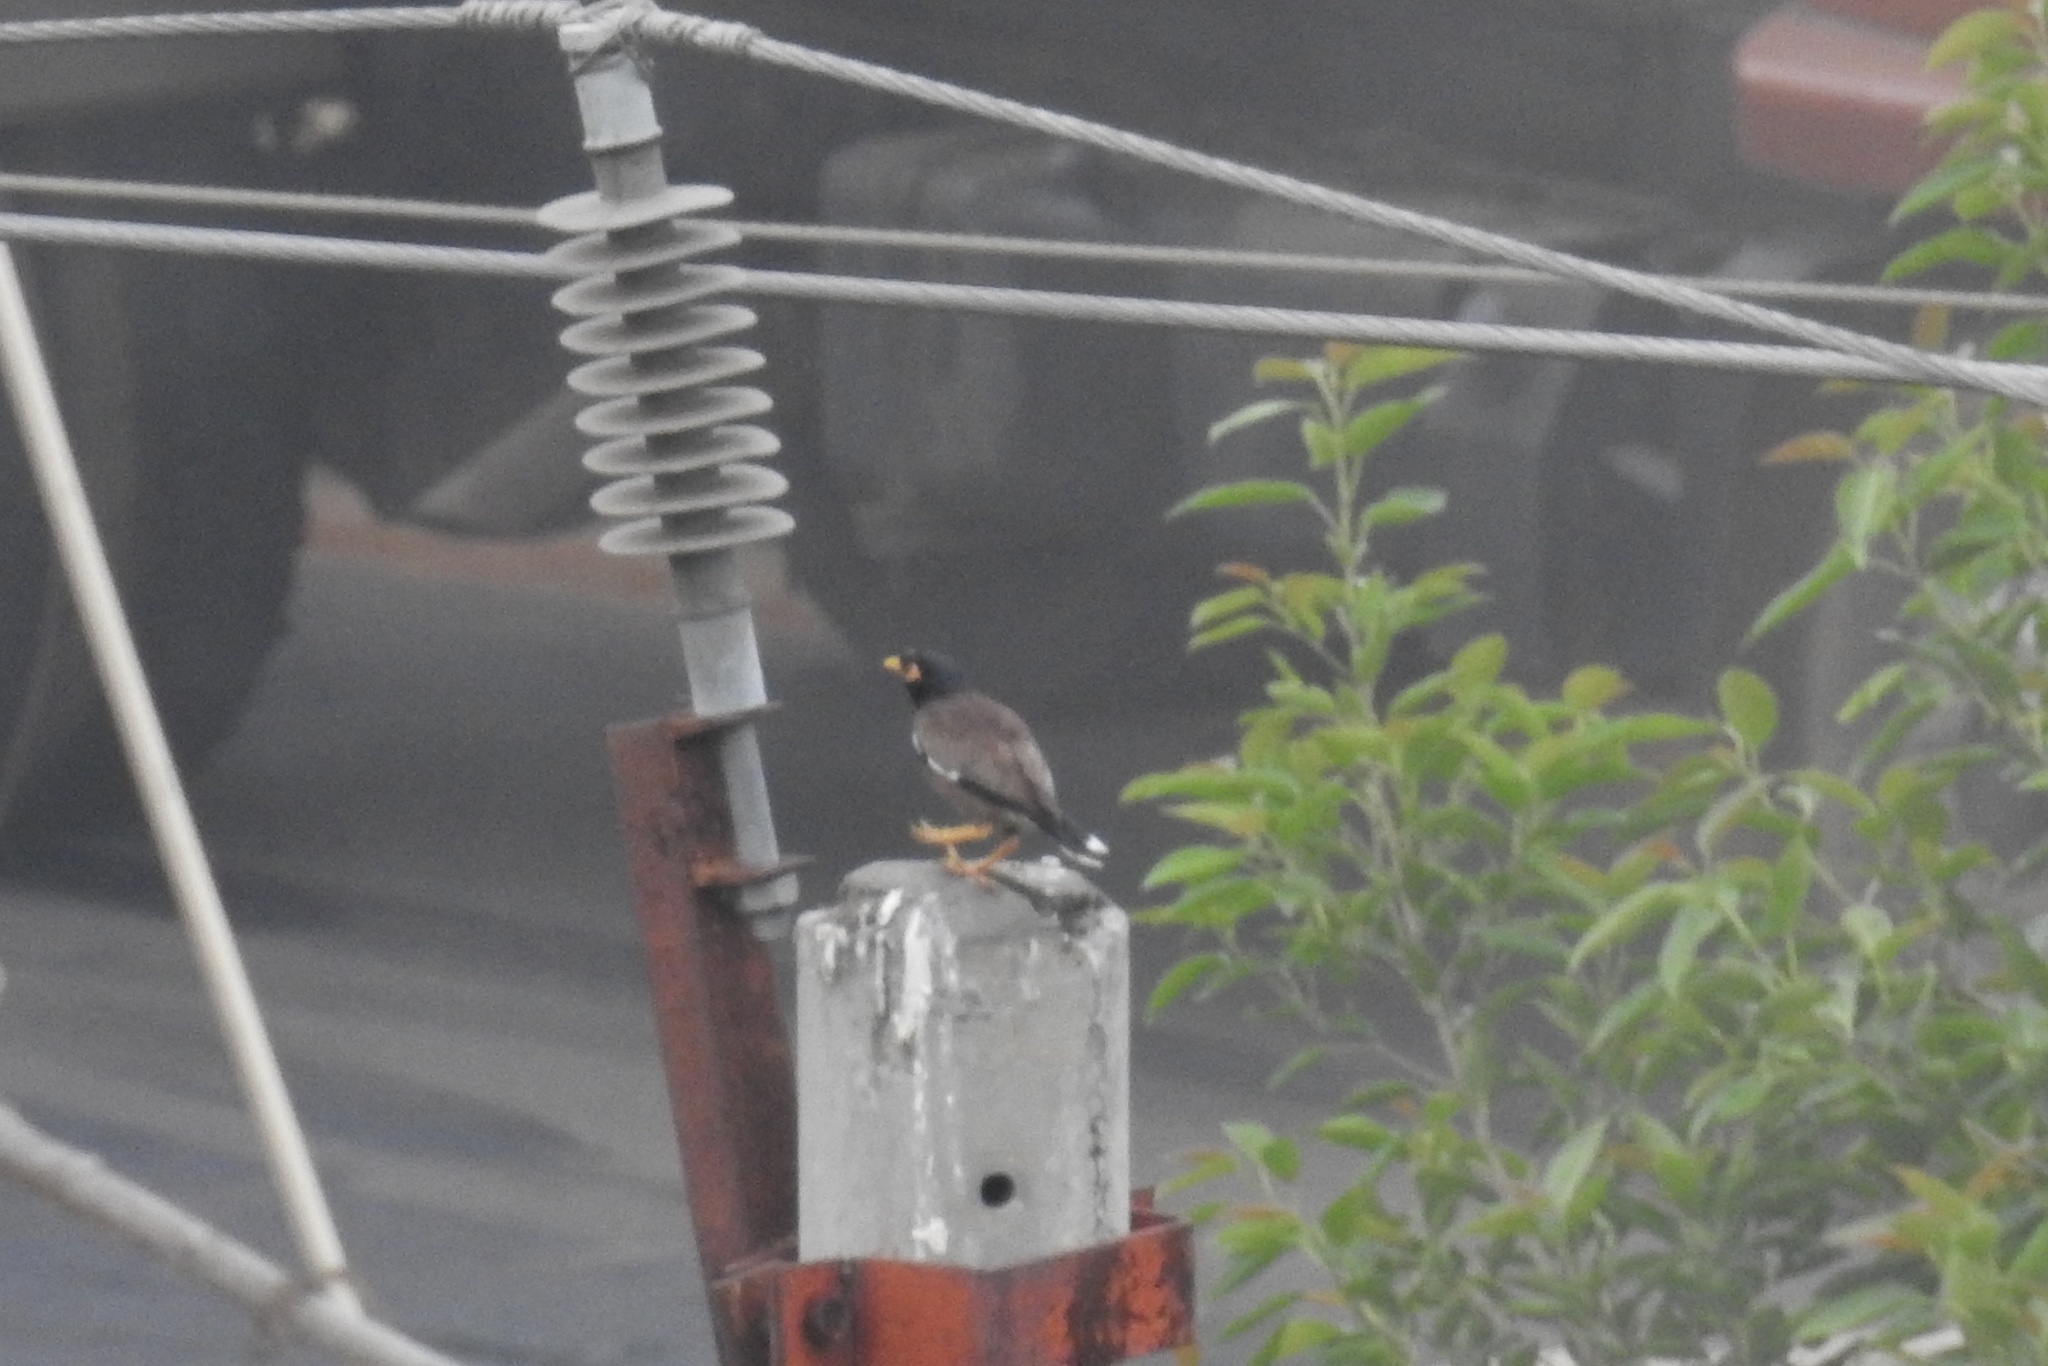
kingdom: Animalia
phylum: Chordata
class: Aves
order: Passeriformes
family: Sturnidae
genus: Acridotheres
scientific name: Acridotheres tristis
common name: Common myna
